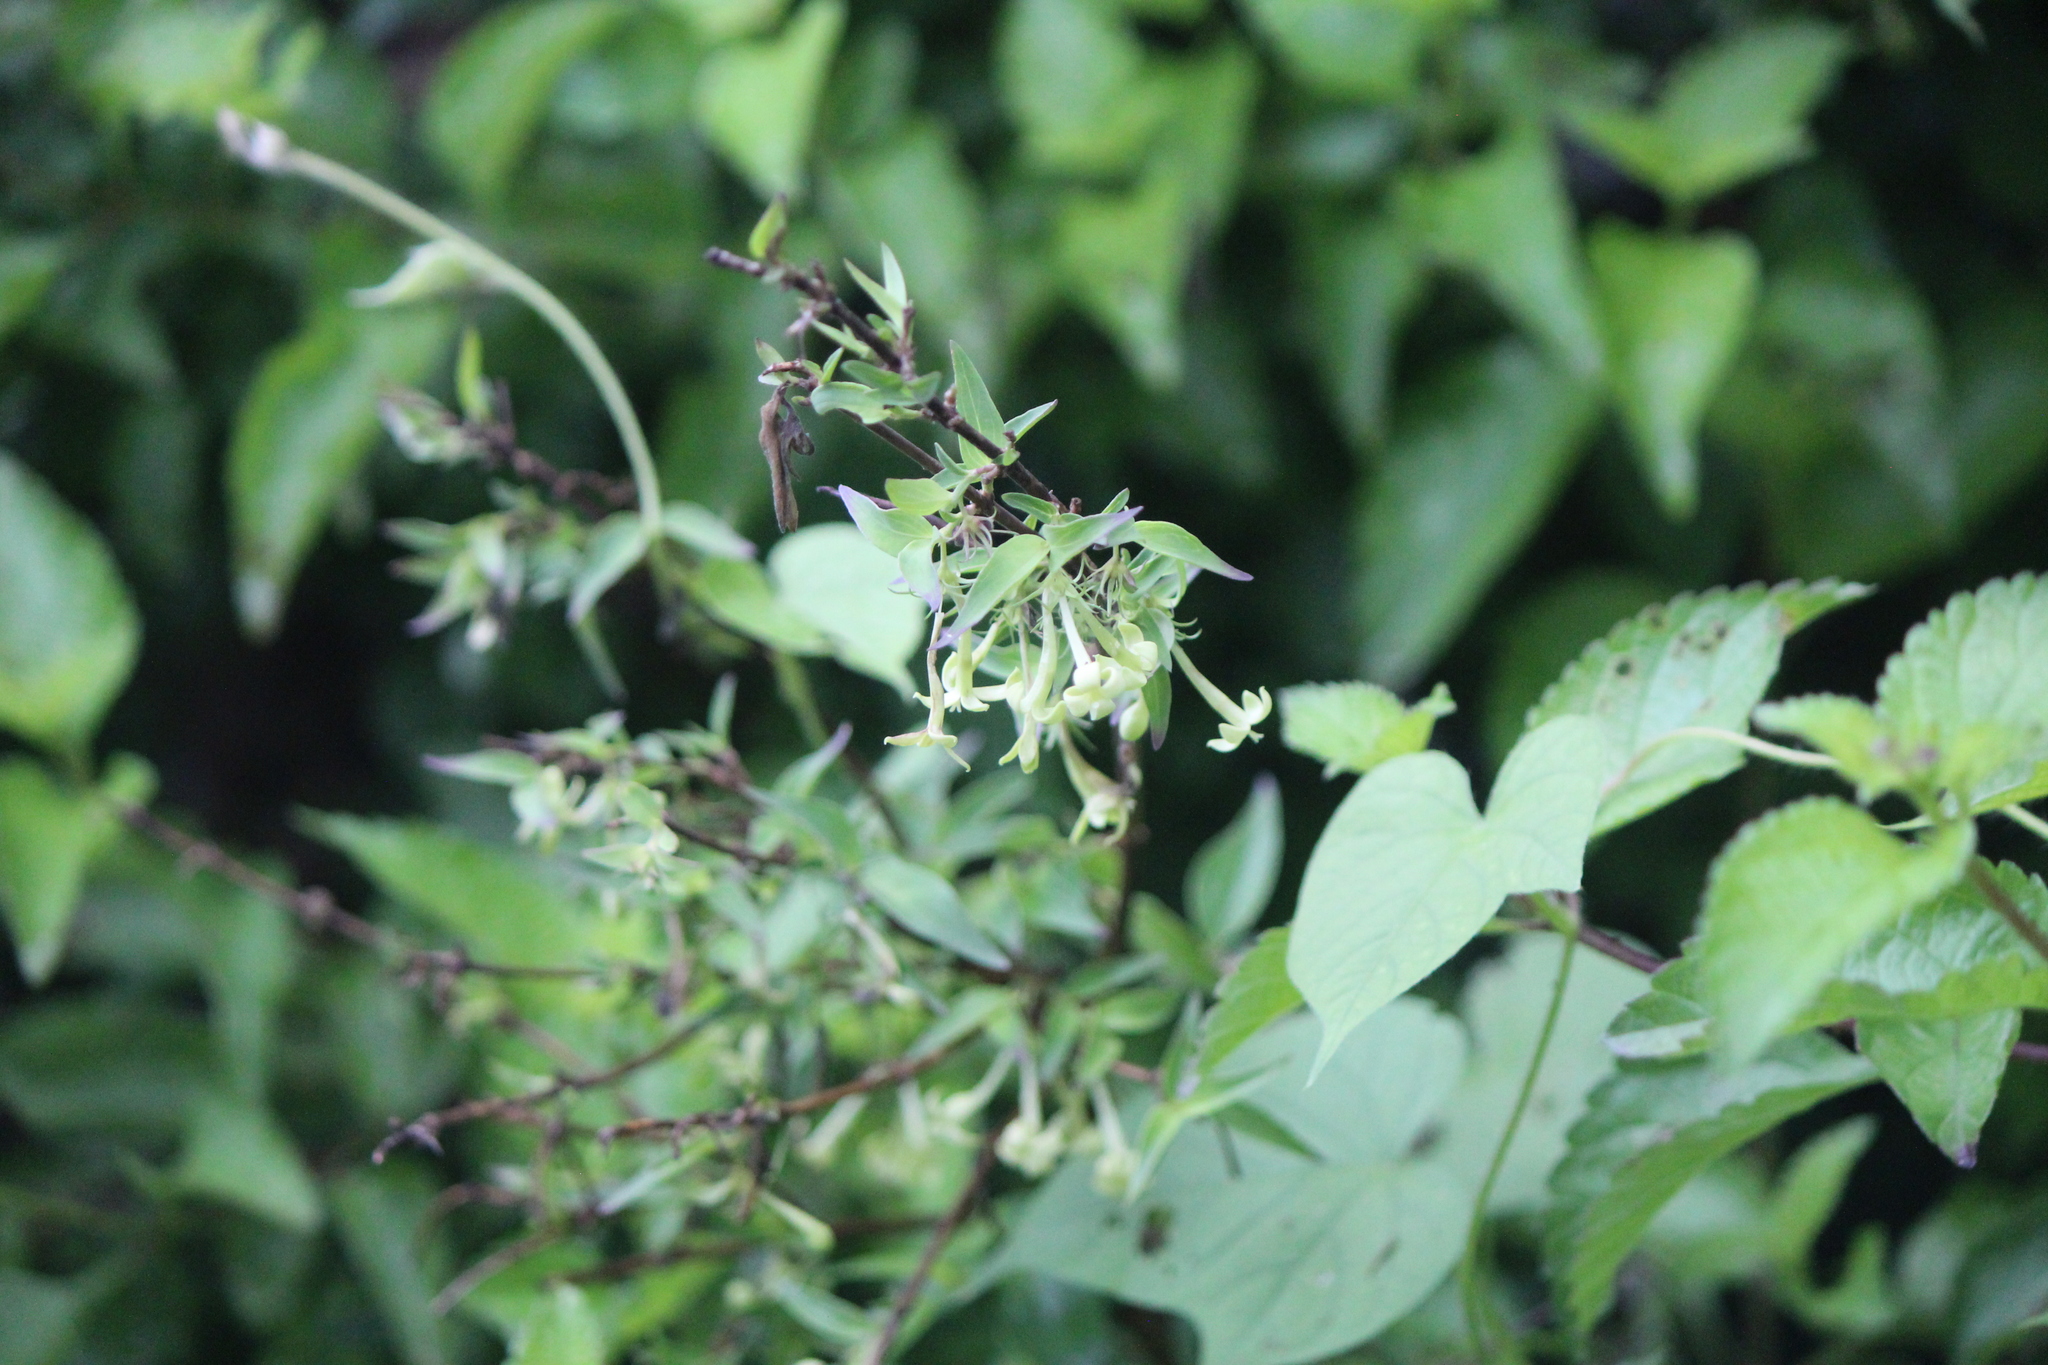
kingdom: Plantae
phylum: Tracheophyta
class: Magnoliopsida
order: Gentianales
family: Rubiaceae
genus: Bouvardia
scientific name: Bouvardia multiflora
